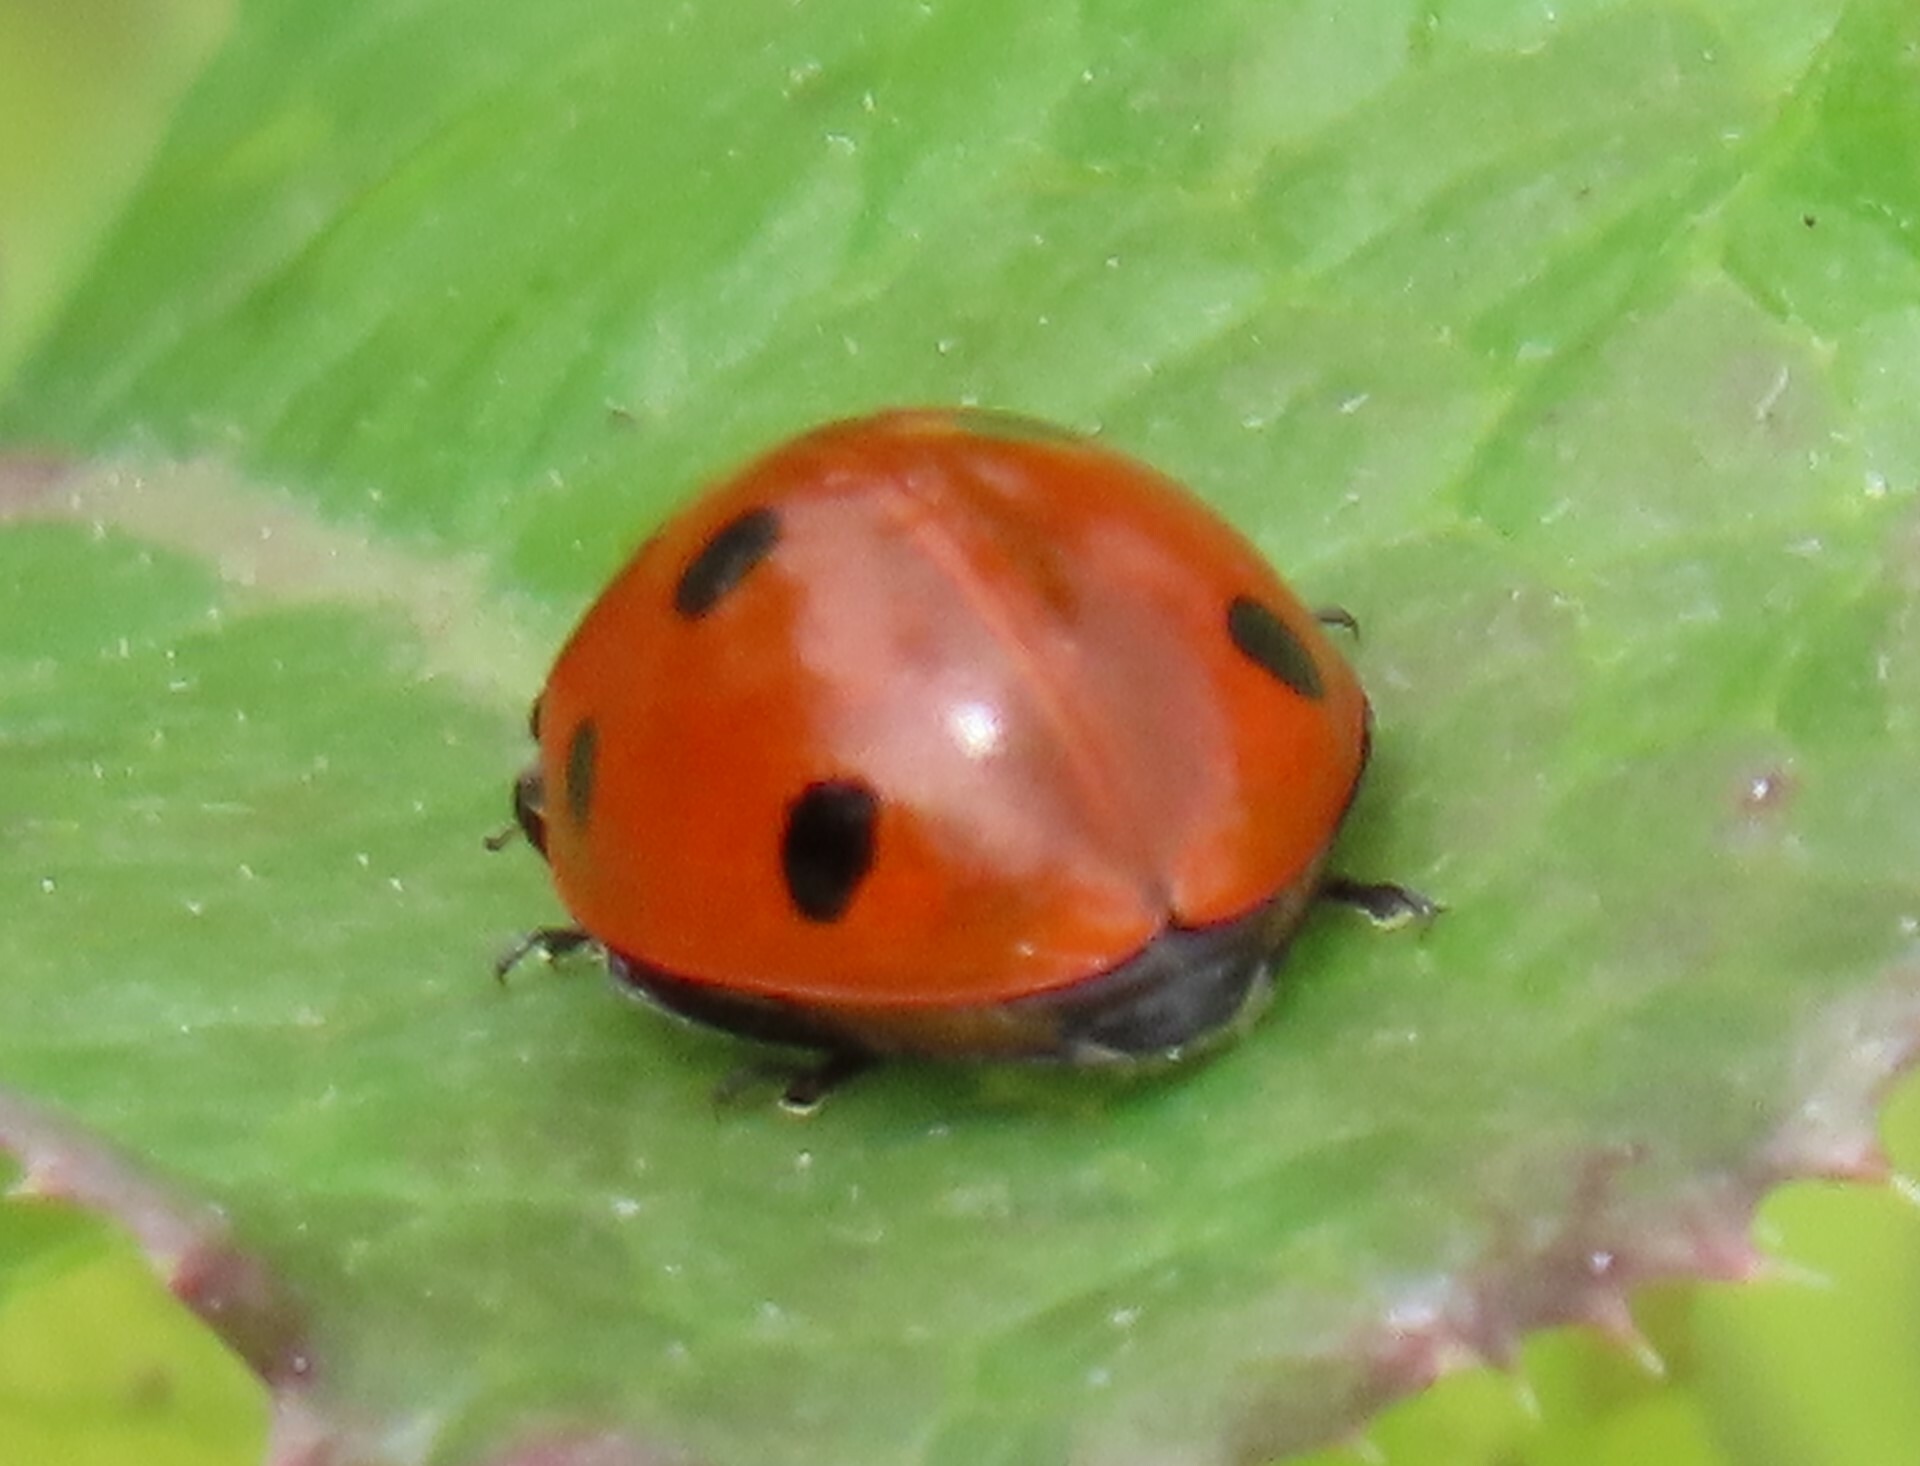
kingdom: Animalia
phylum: Arthropoda
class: Insecta
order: Coleoptera
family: Coccinellidae
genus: Coccinella
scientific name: Coccinella septempunctata
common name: Sevenspotted lady beetle
